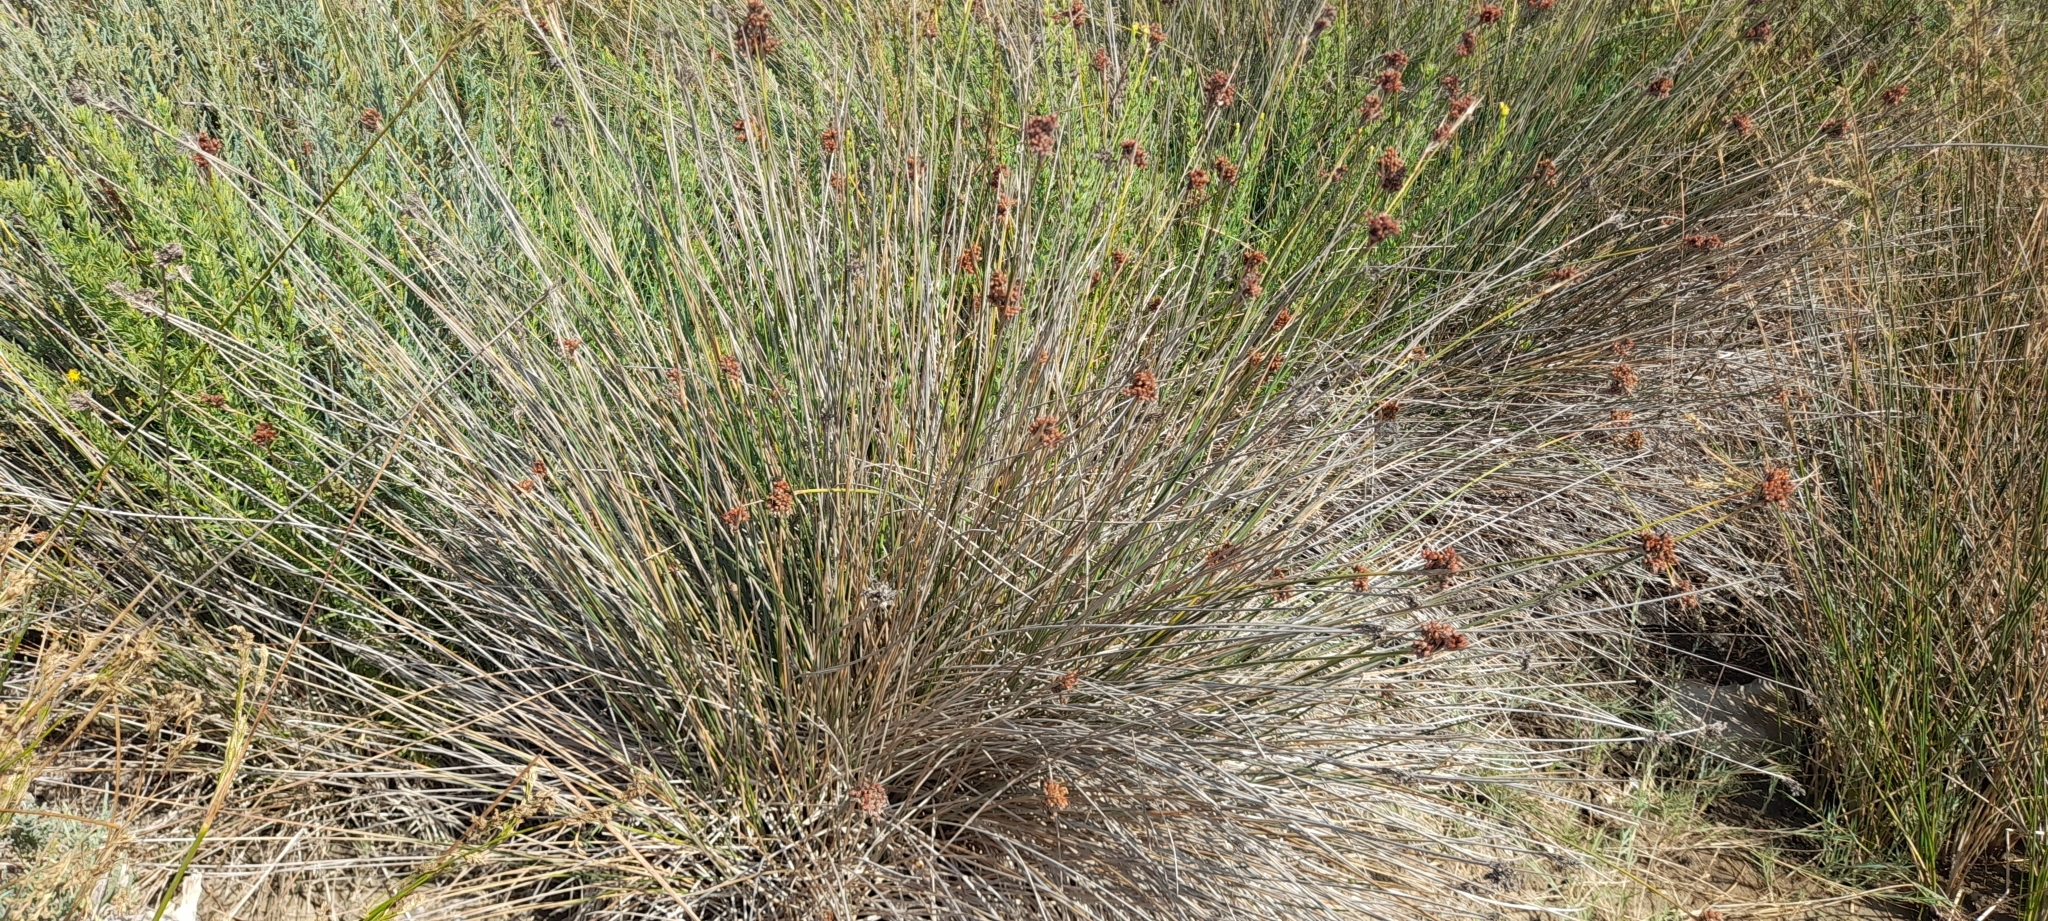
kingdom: Plantae
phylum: Tracheophyta
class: Liliopsida
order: Poales
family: Juncaceae
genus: Juncus
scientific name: Juncus acutus
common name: Sharp rush
